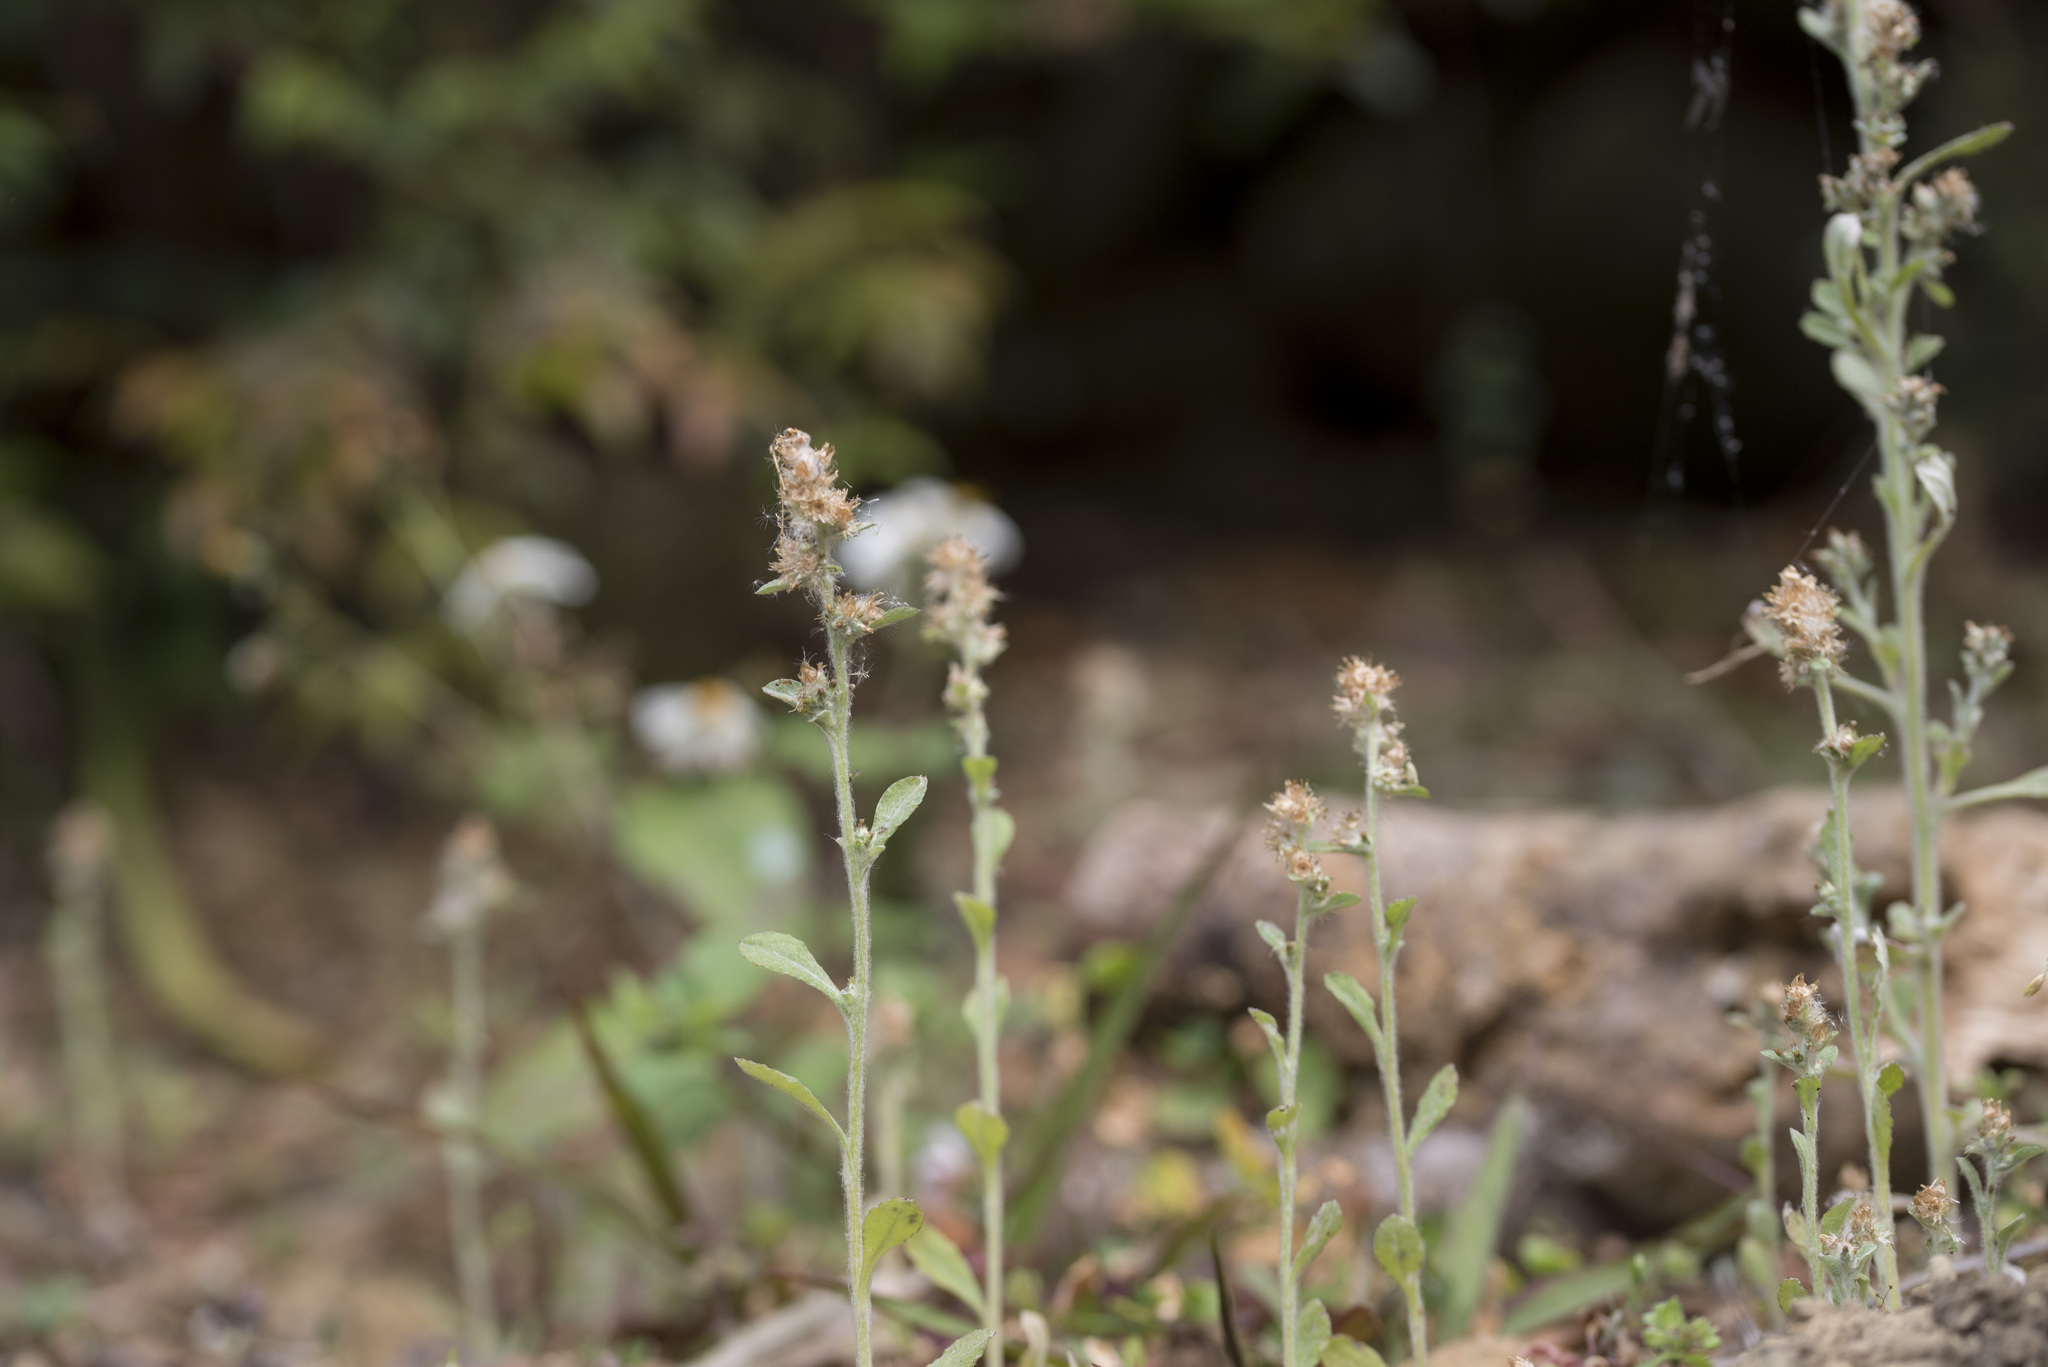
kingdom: Plantae
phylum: Tracheophyta
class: Magnoliopsida
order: Asterales
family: Asteraceae
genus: Gamochaeta
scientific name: Gamochaeta purpurea
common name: Purple cudweed
